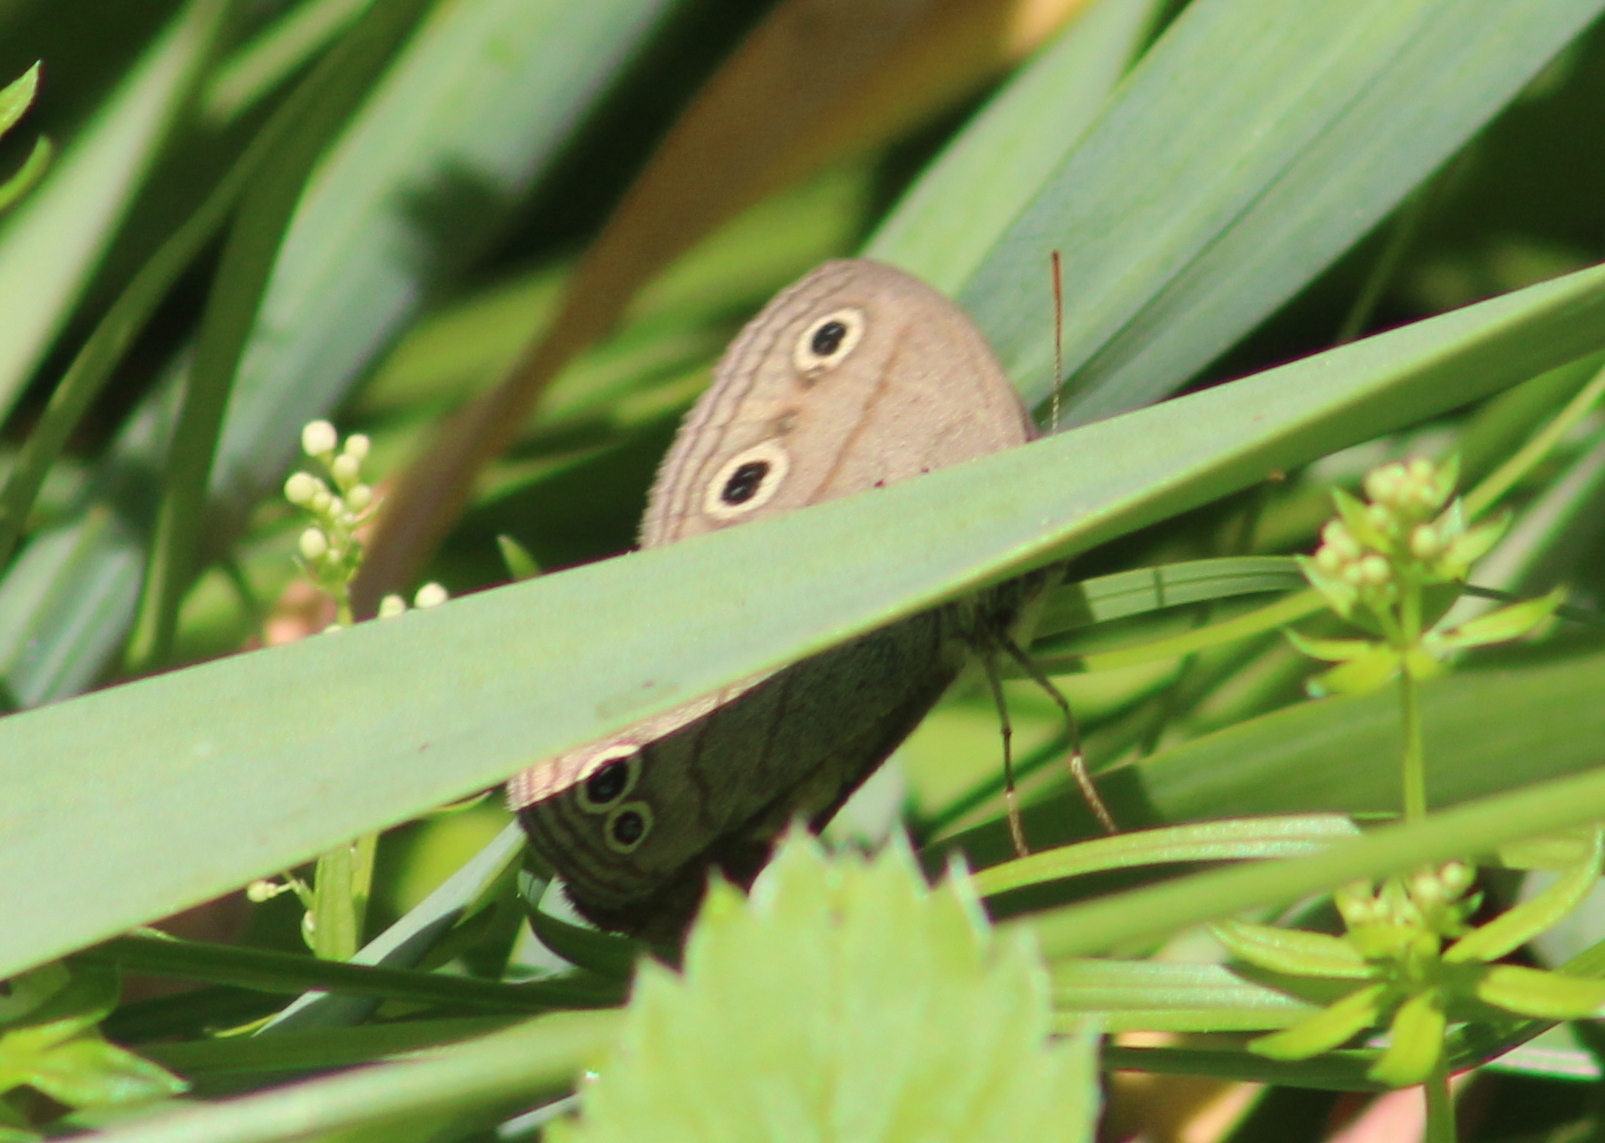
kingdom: Animalia
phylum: Arthropoda
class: Insecta
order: Lepidoptera
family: Nymphalidae
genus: Euptychia
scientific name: Euptychia cymela
